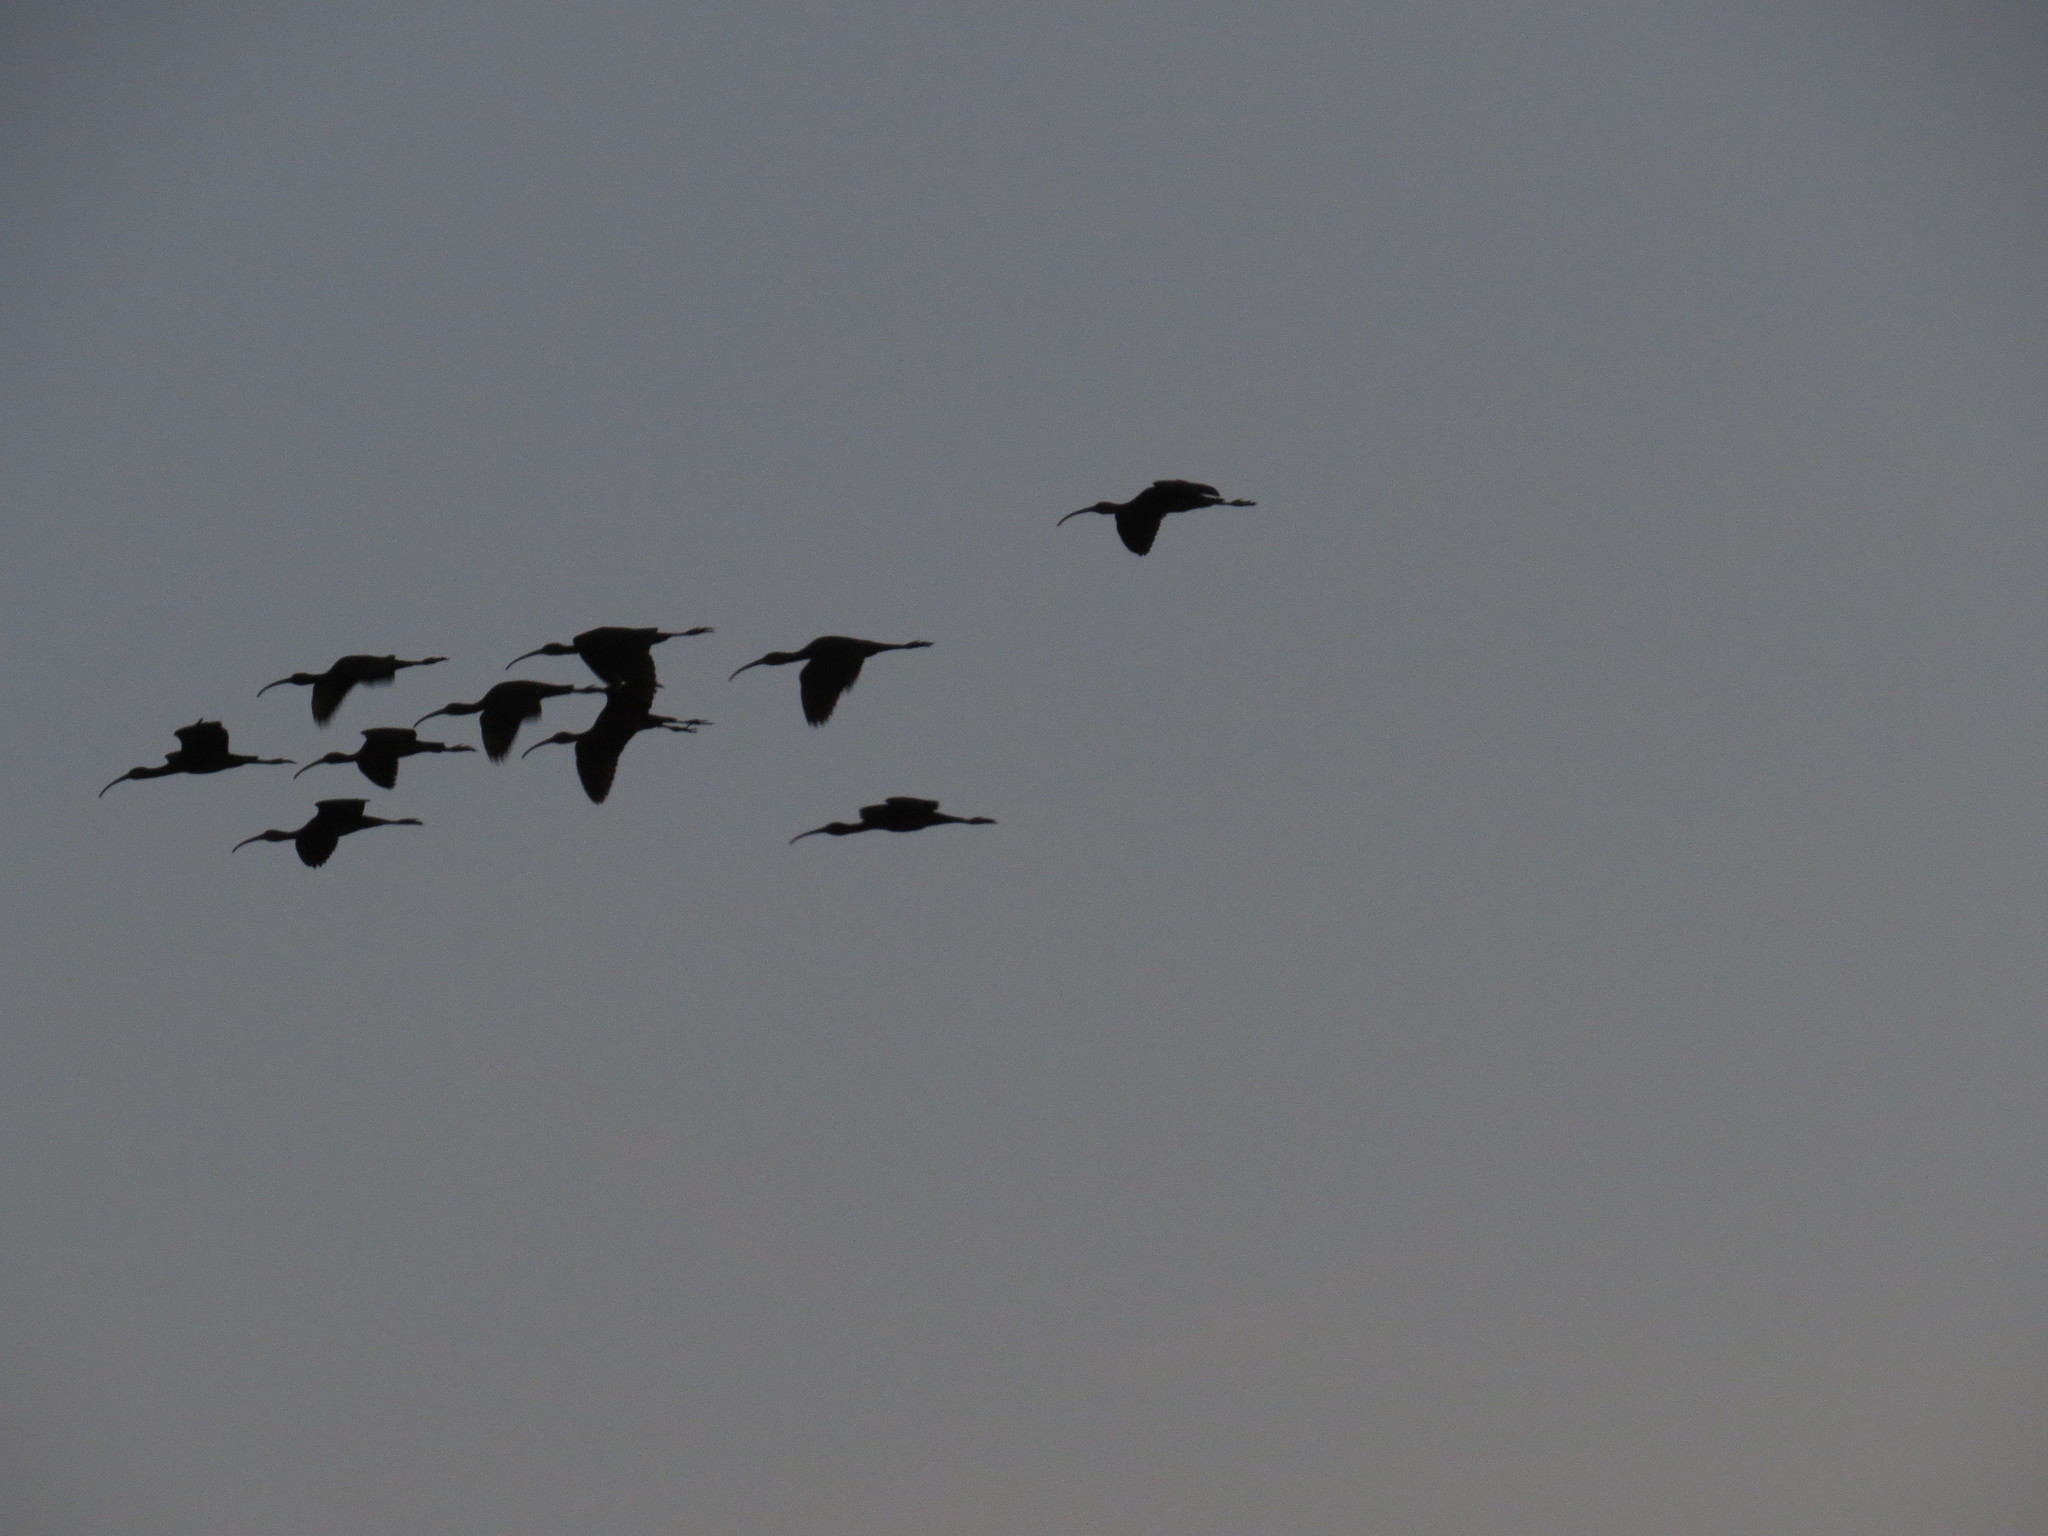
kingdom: Animalia
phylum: Chordata
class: Aves
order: Pelecaniformes
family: Threskiornithidae
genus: Plegadis
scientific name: Plegadis falcinellus
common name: Glossy ibis
